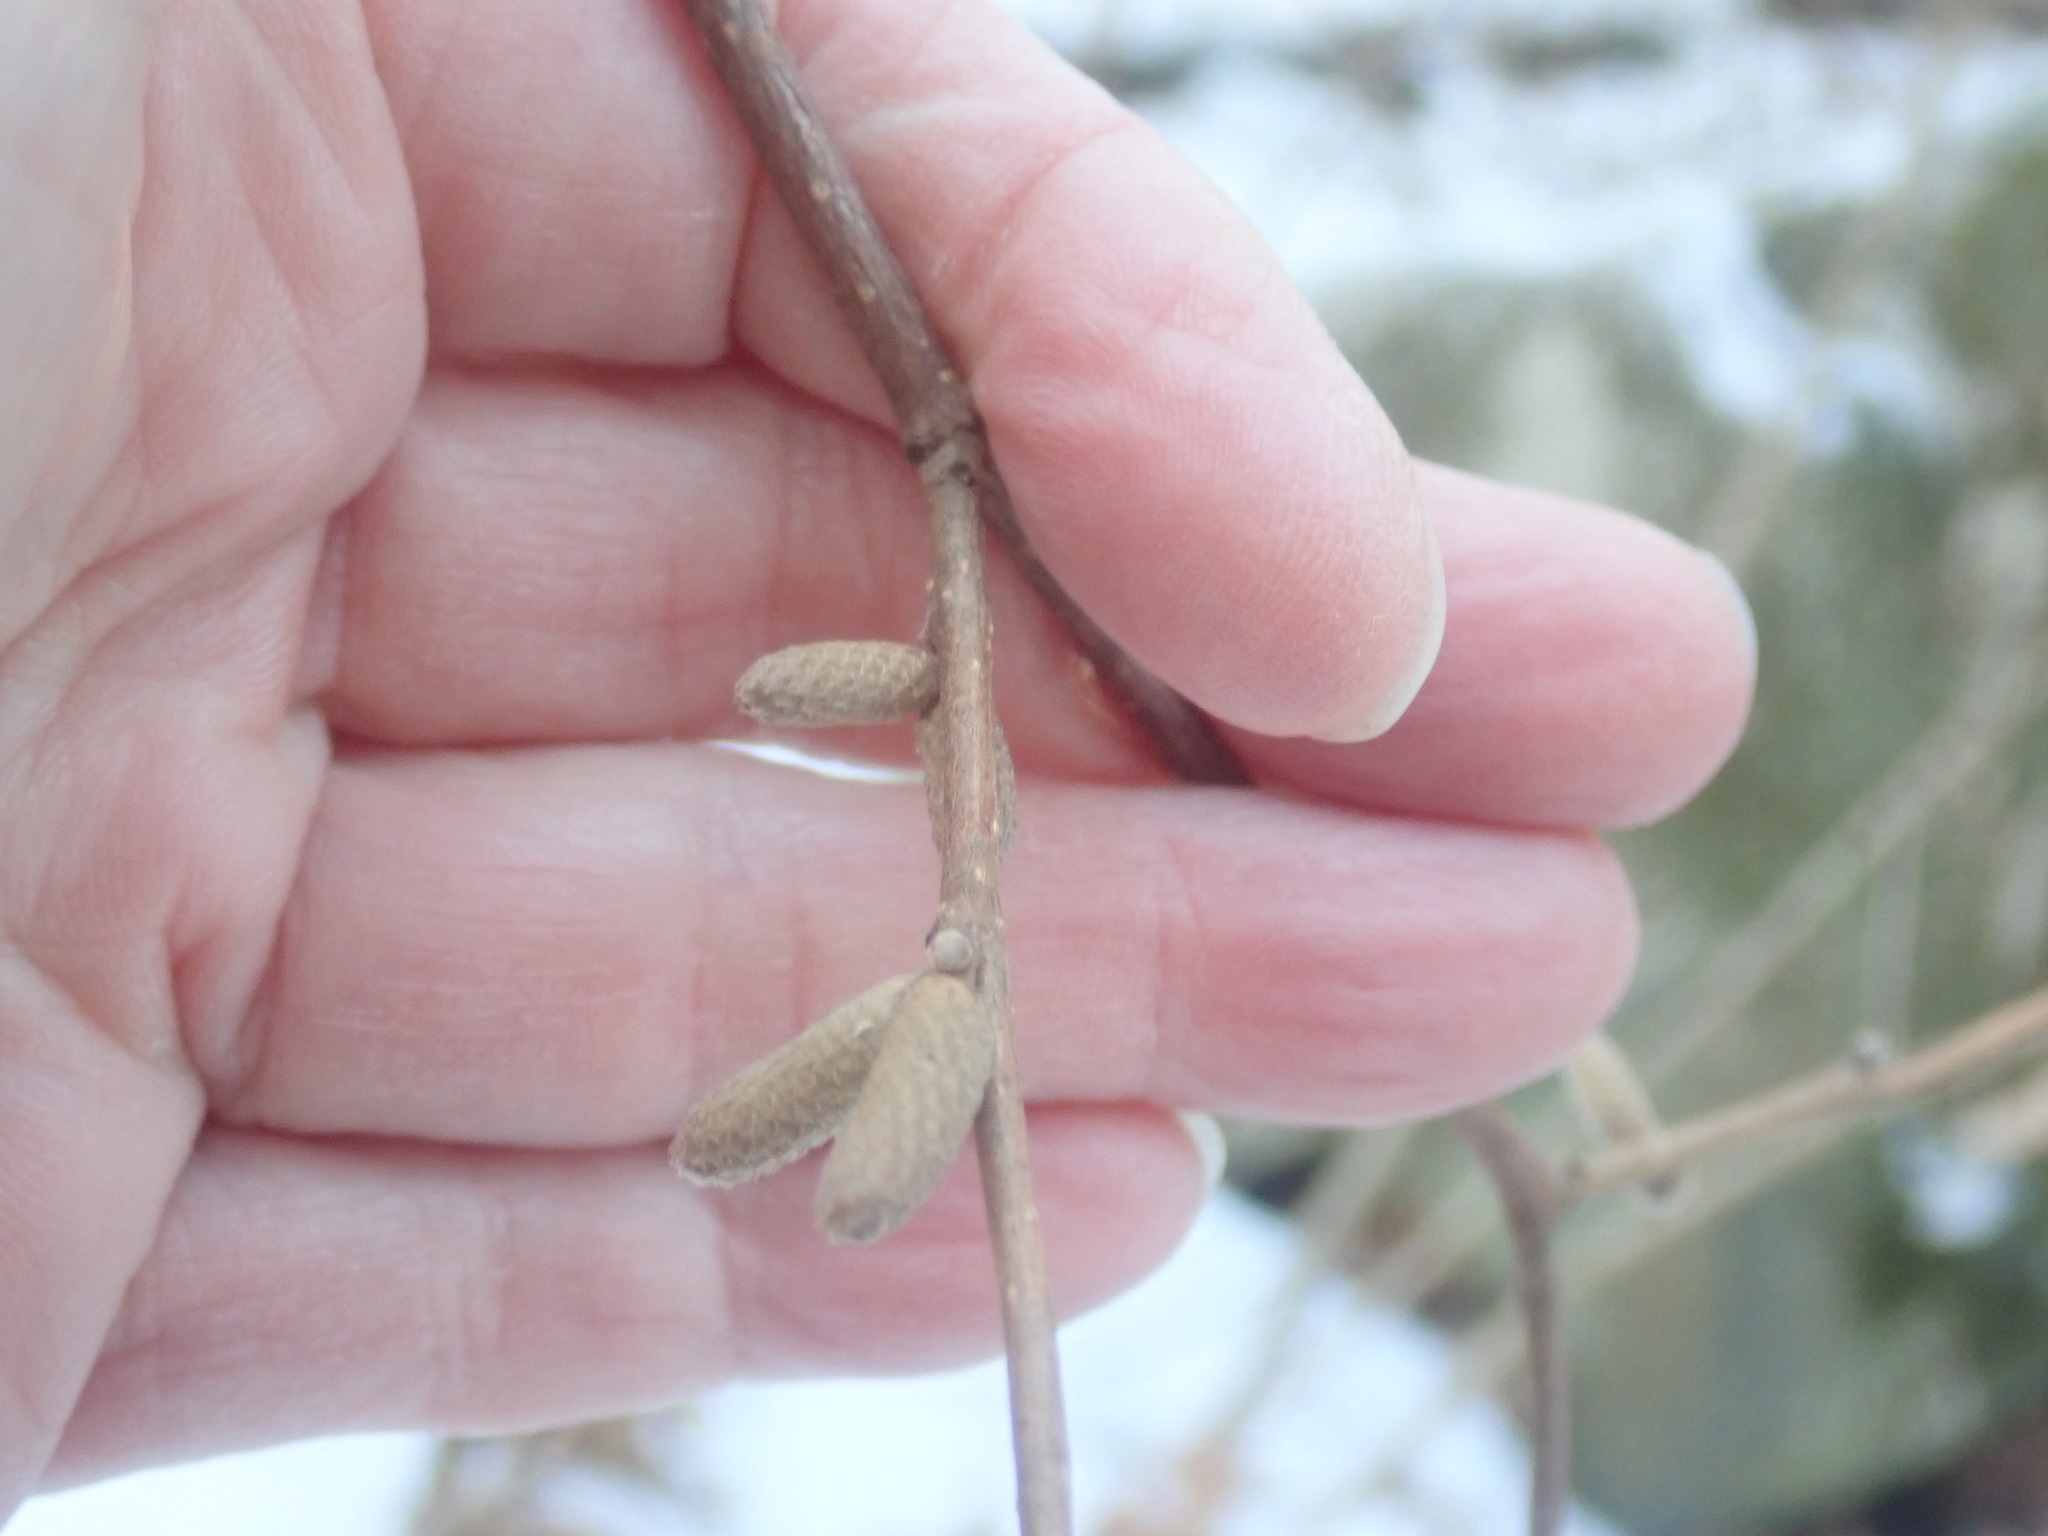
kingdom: Plantae
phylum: Tracheophyta
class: Magnoliopsida
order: Fagales
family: Betulaceae
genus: Corylus
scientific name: Corylus cornuta
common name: Beaked hazel
